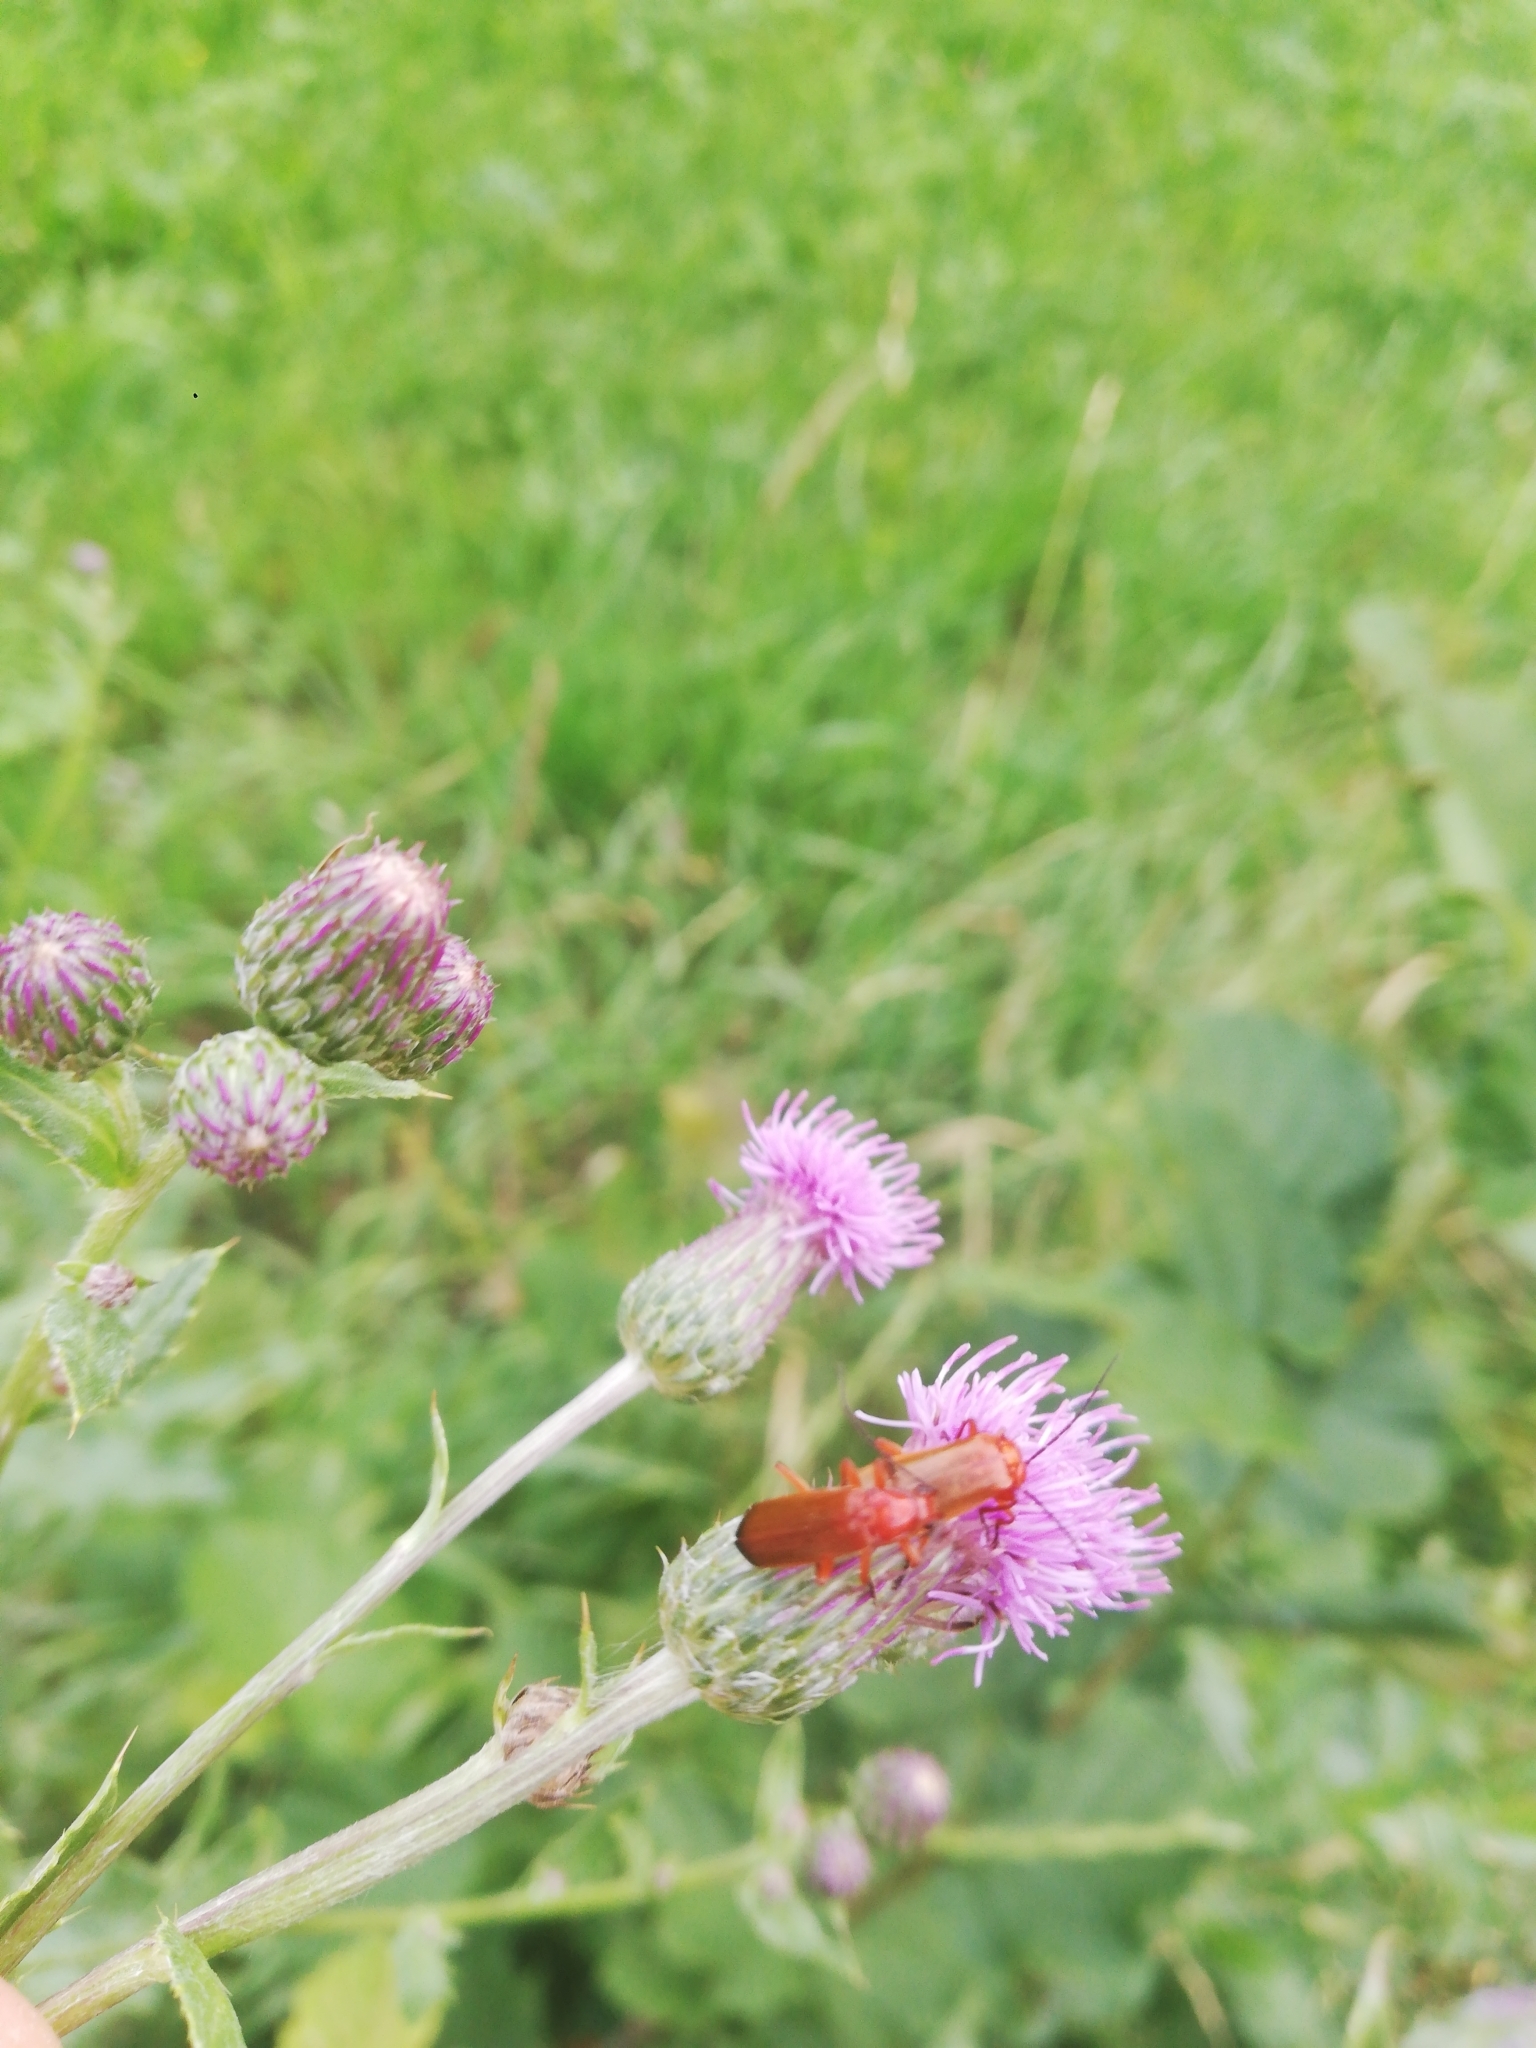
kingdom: Animalia
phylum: Arthropoda
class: Insecta
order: Coleoptera
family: Cantharidae
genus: Rhagonycha
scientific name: Rhagonycha fulva
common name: Common red soldier beetle
